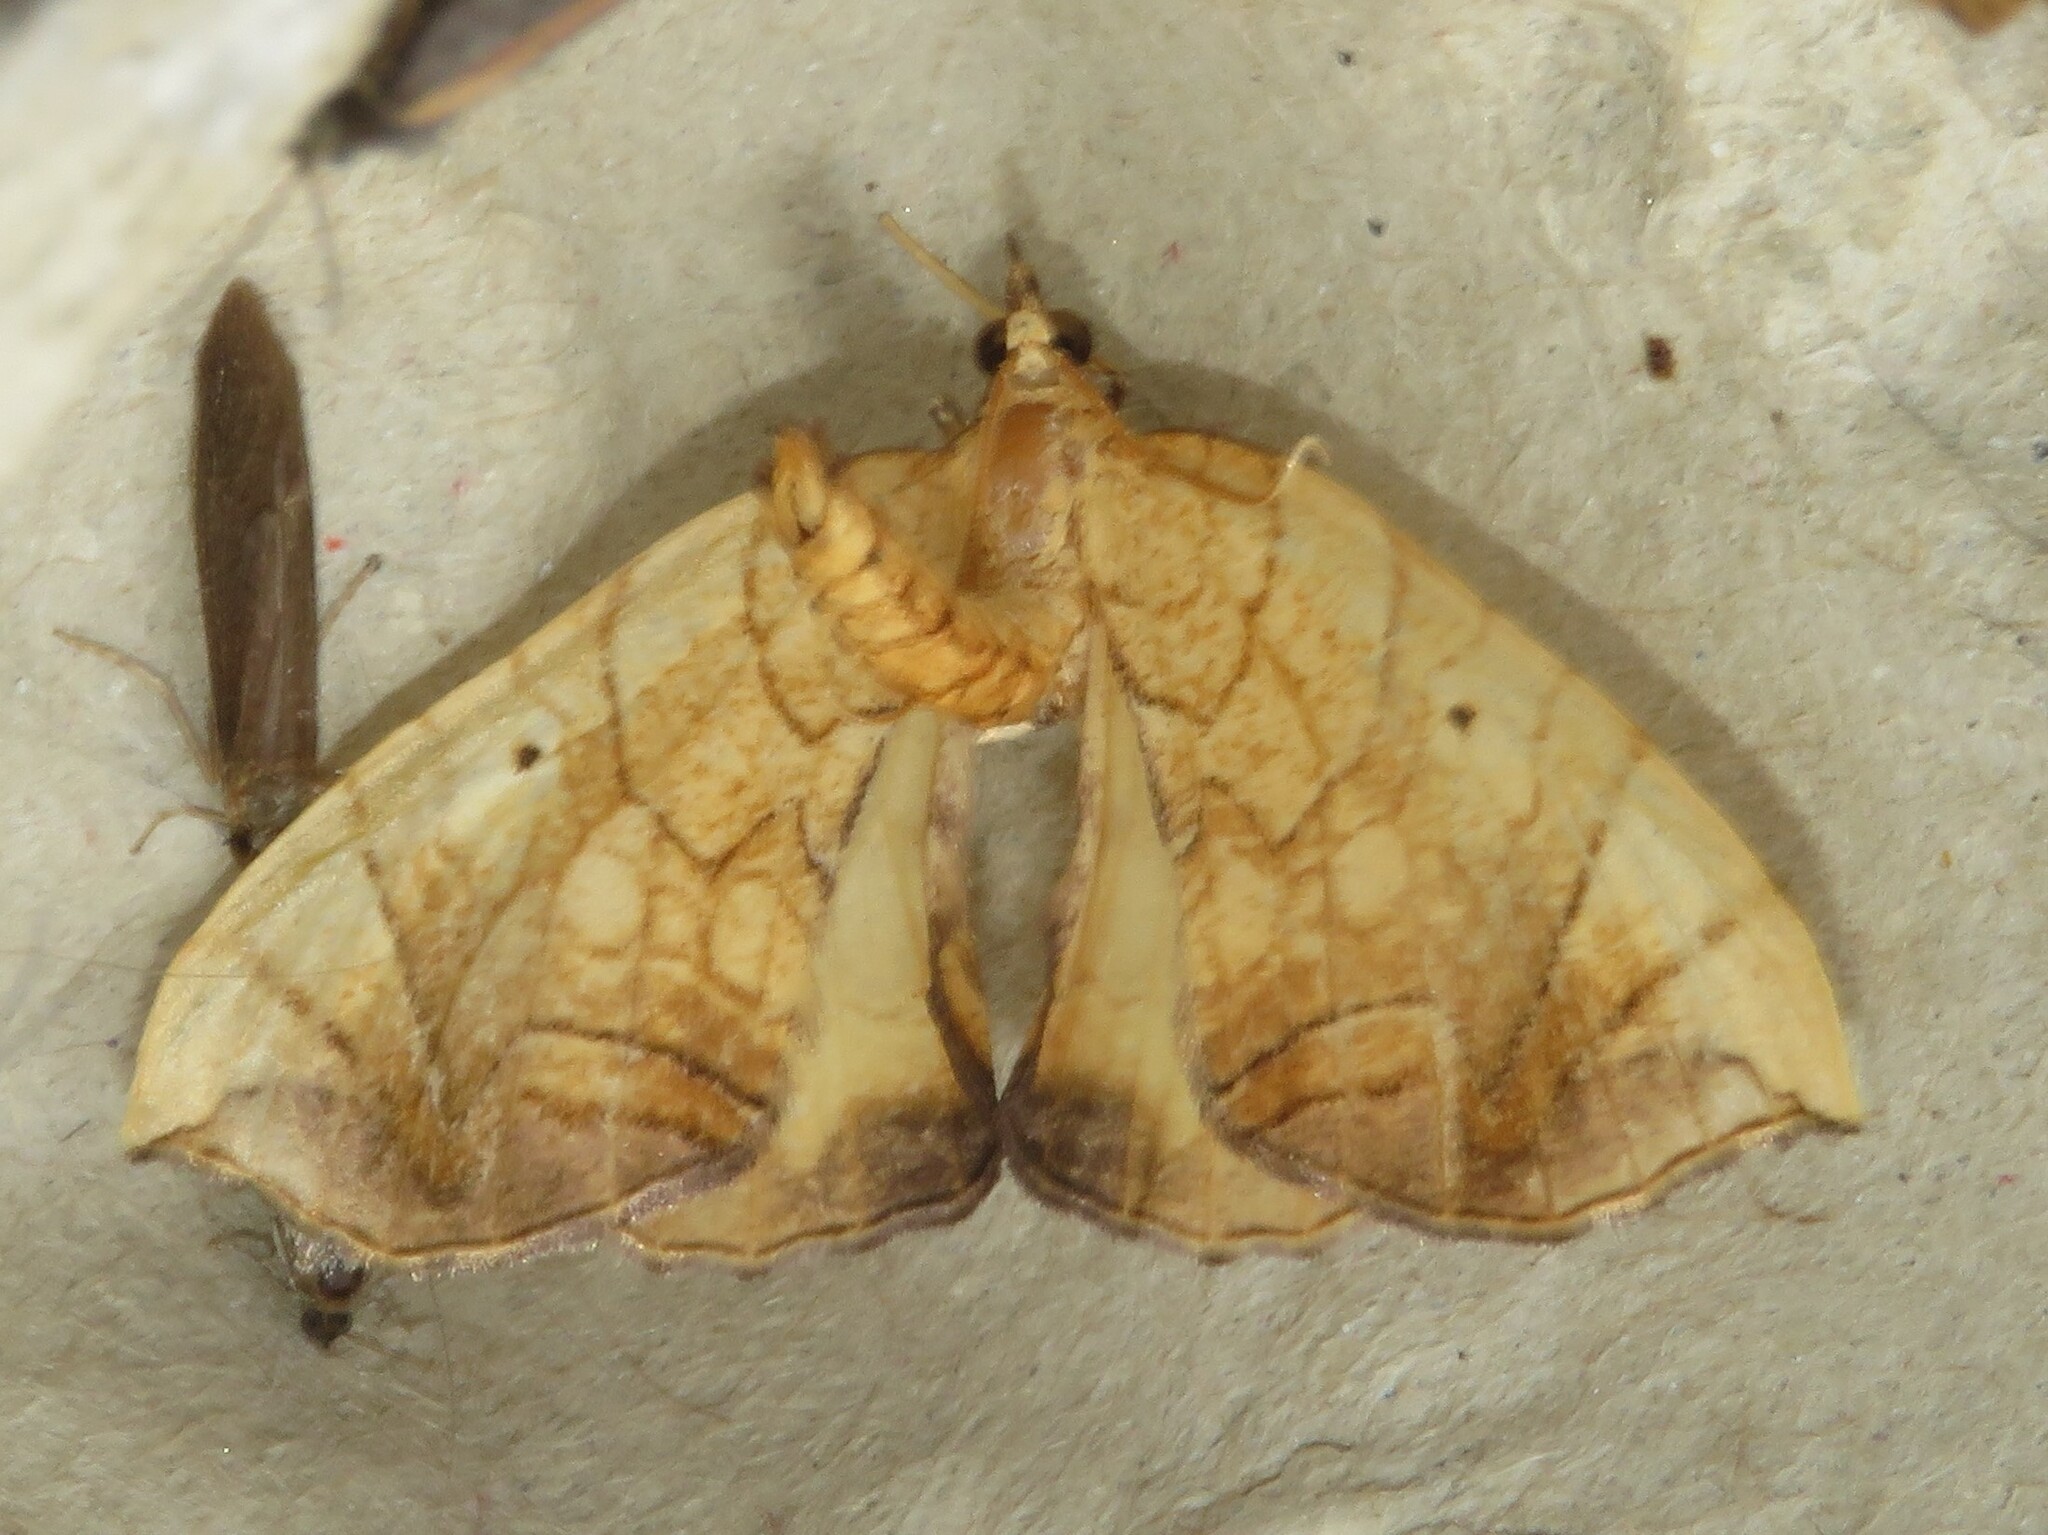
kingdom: Animalia
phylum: Arthropoda
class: Insecta
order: Lepidoptera
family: Geometridae
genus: Eulithis
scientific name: Eulithis
